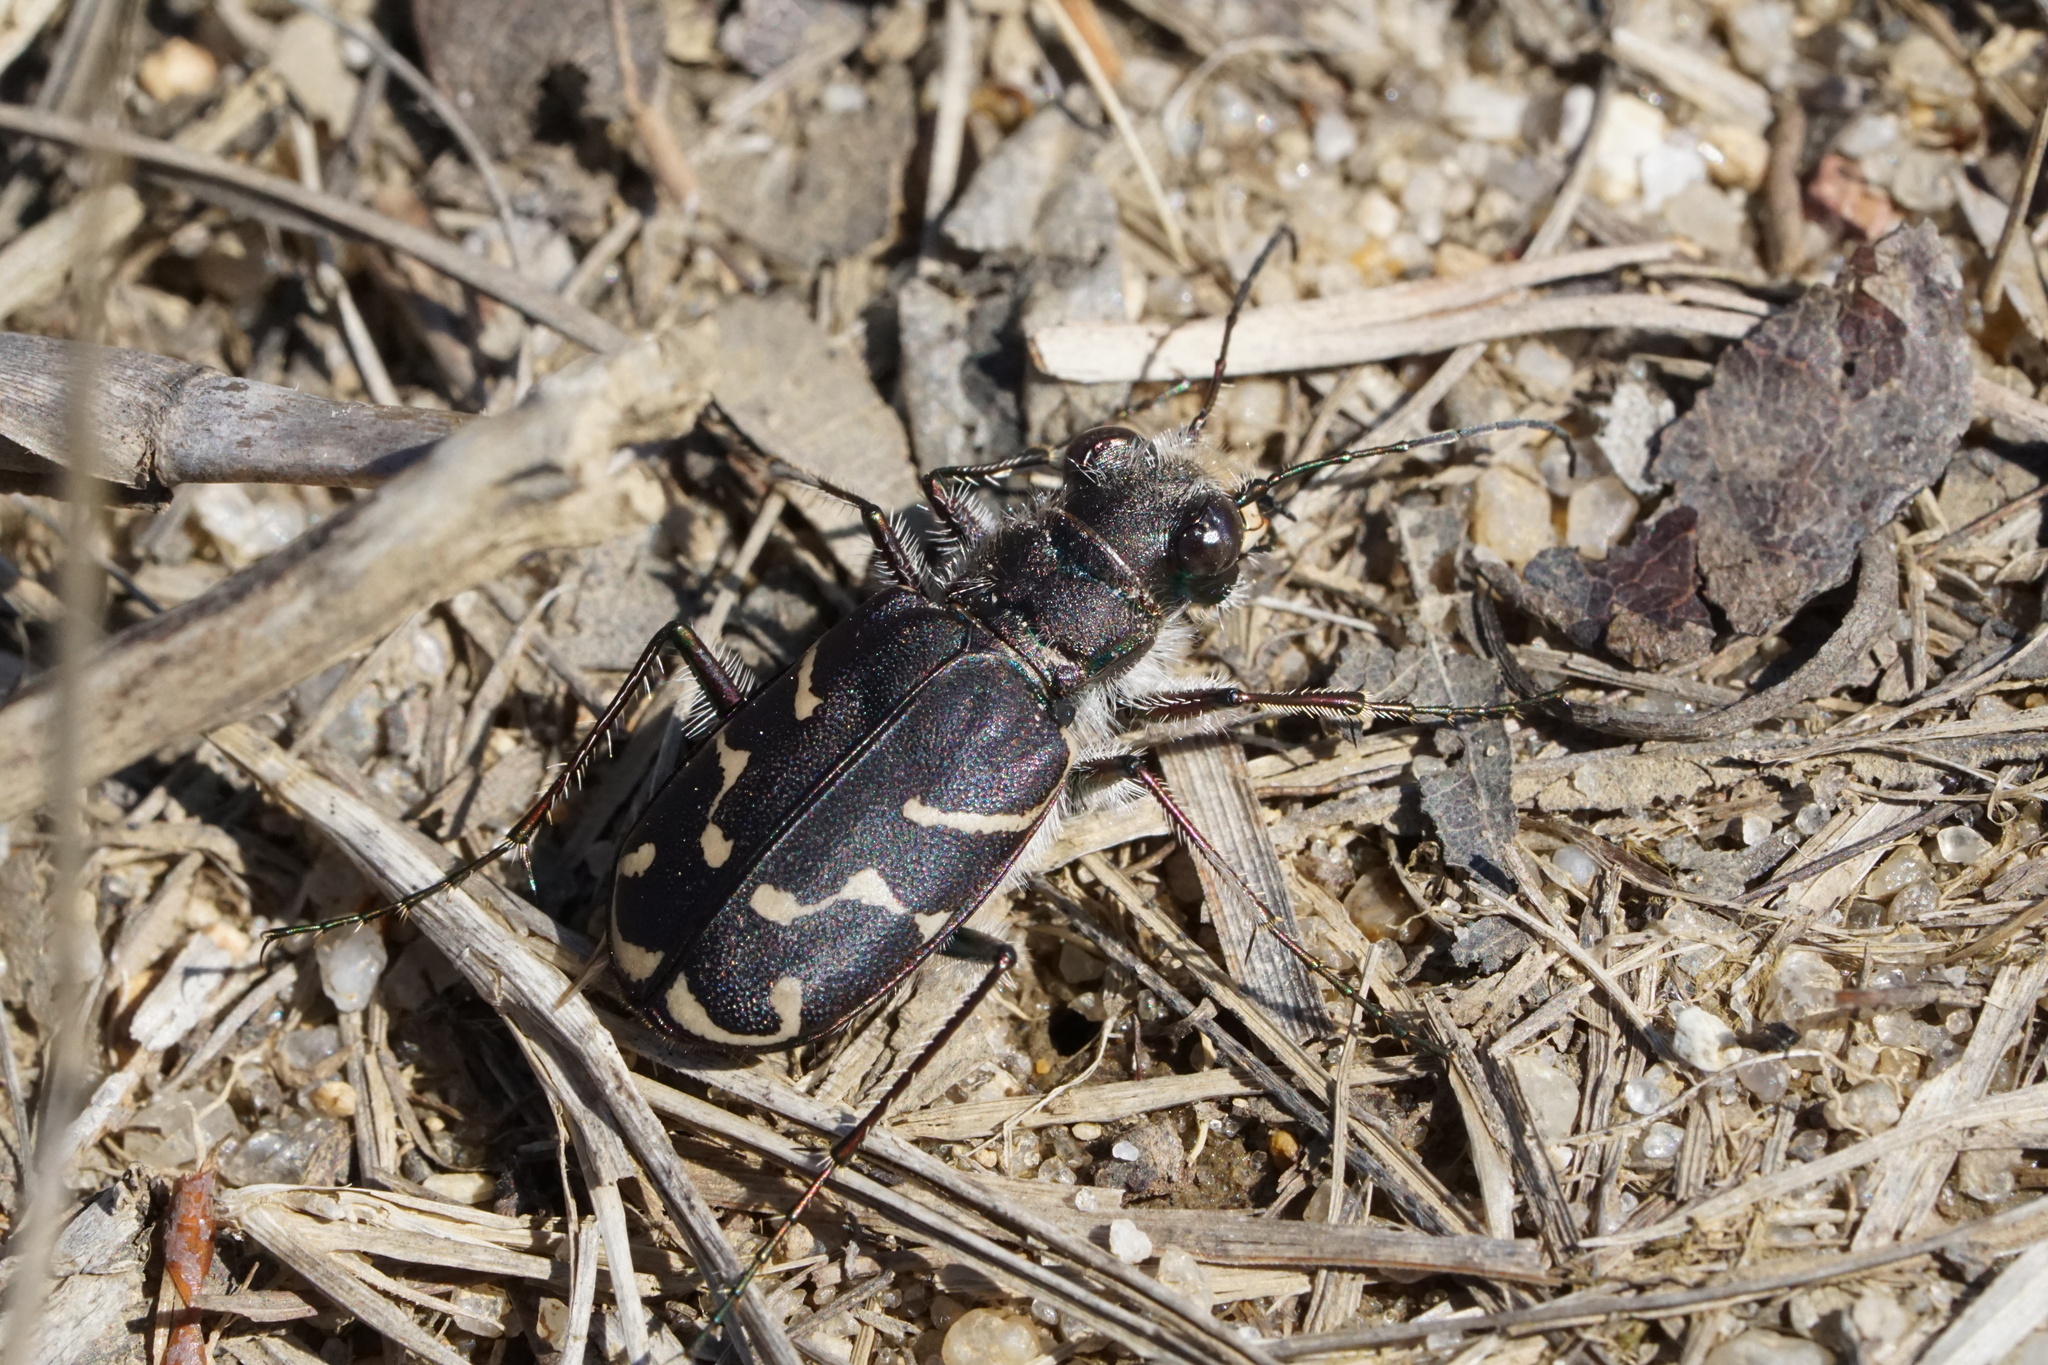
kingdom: Animalia
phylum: Arthropoda
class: Insecta
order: Coleoptera
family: Carabidae
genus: Cicindela
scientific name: Cicindela tranquebarica
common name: Oblique-lined tiger beetle
